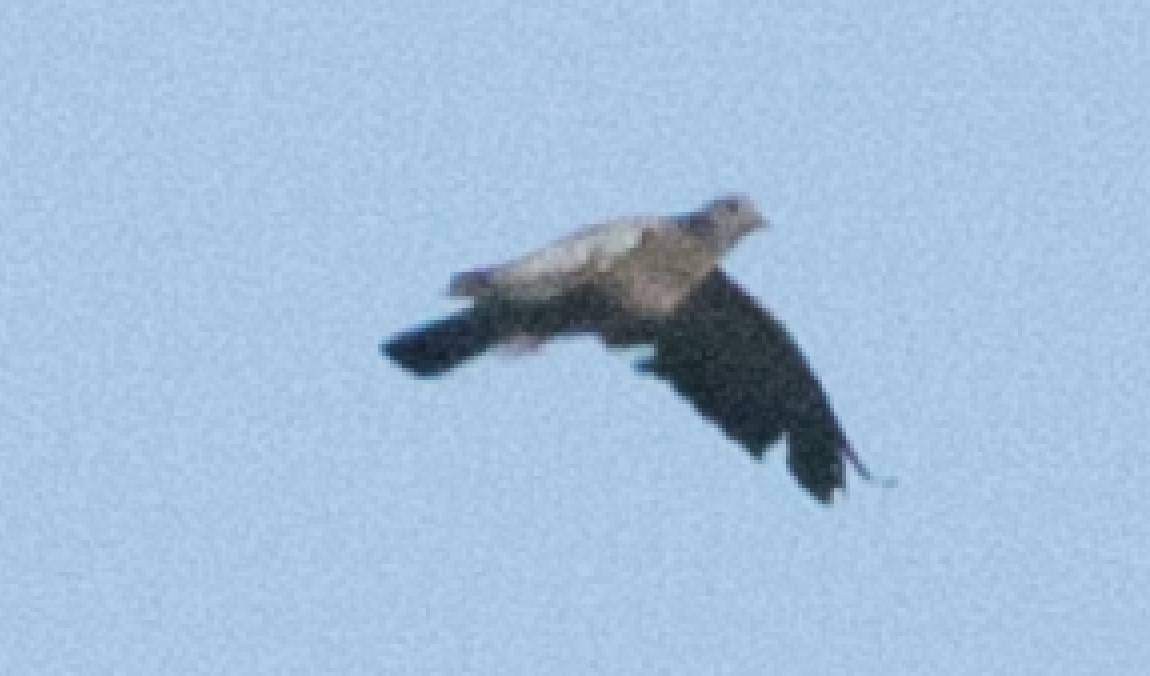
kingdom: Animalia
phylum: Chordata
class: Aves
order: Columbiformes
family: Columbidae
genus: Columba
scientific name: Columba oenas
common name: Stock dove
